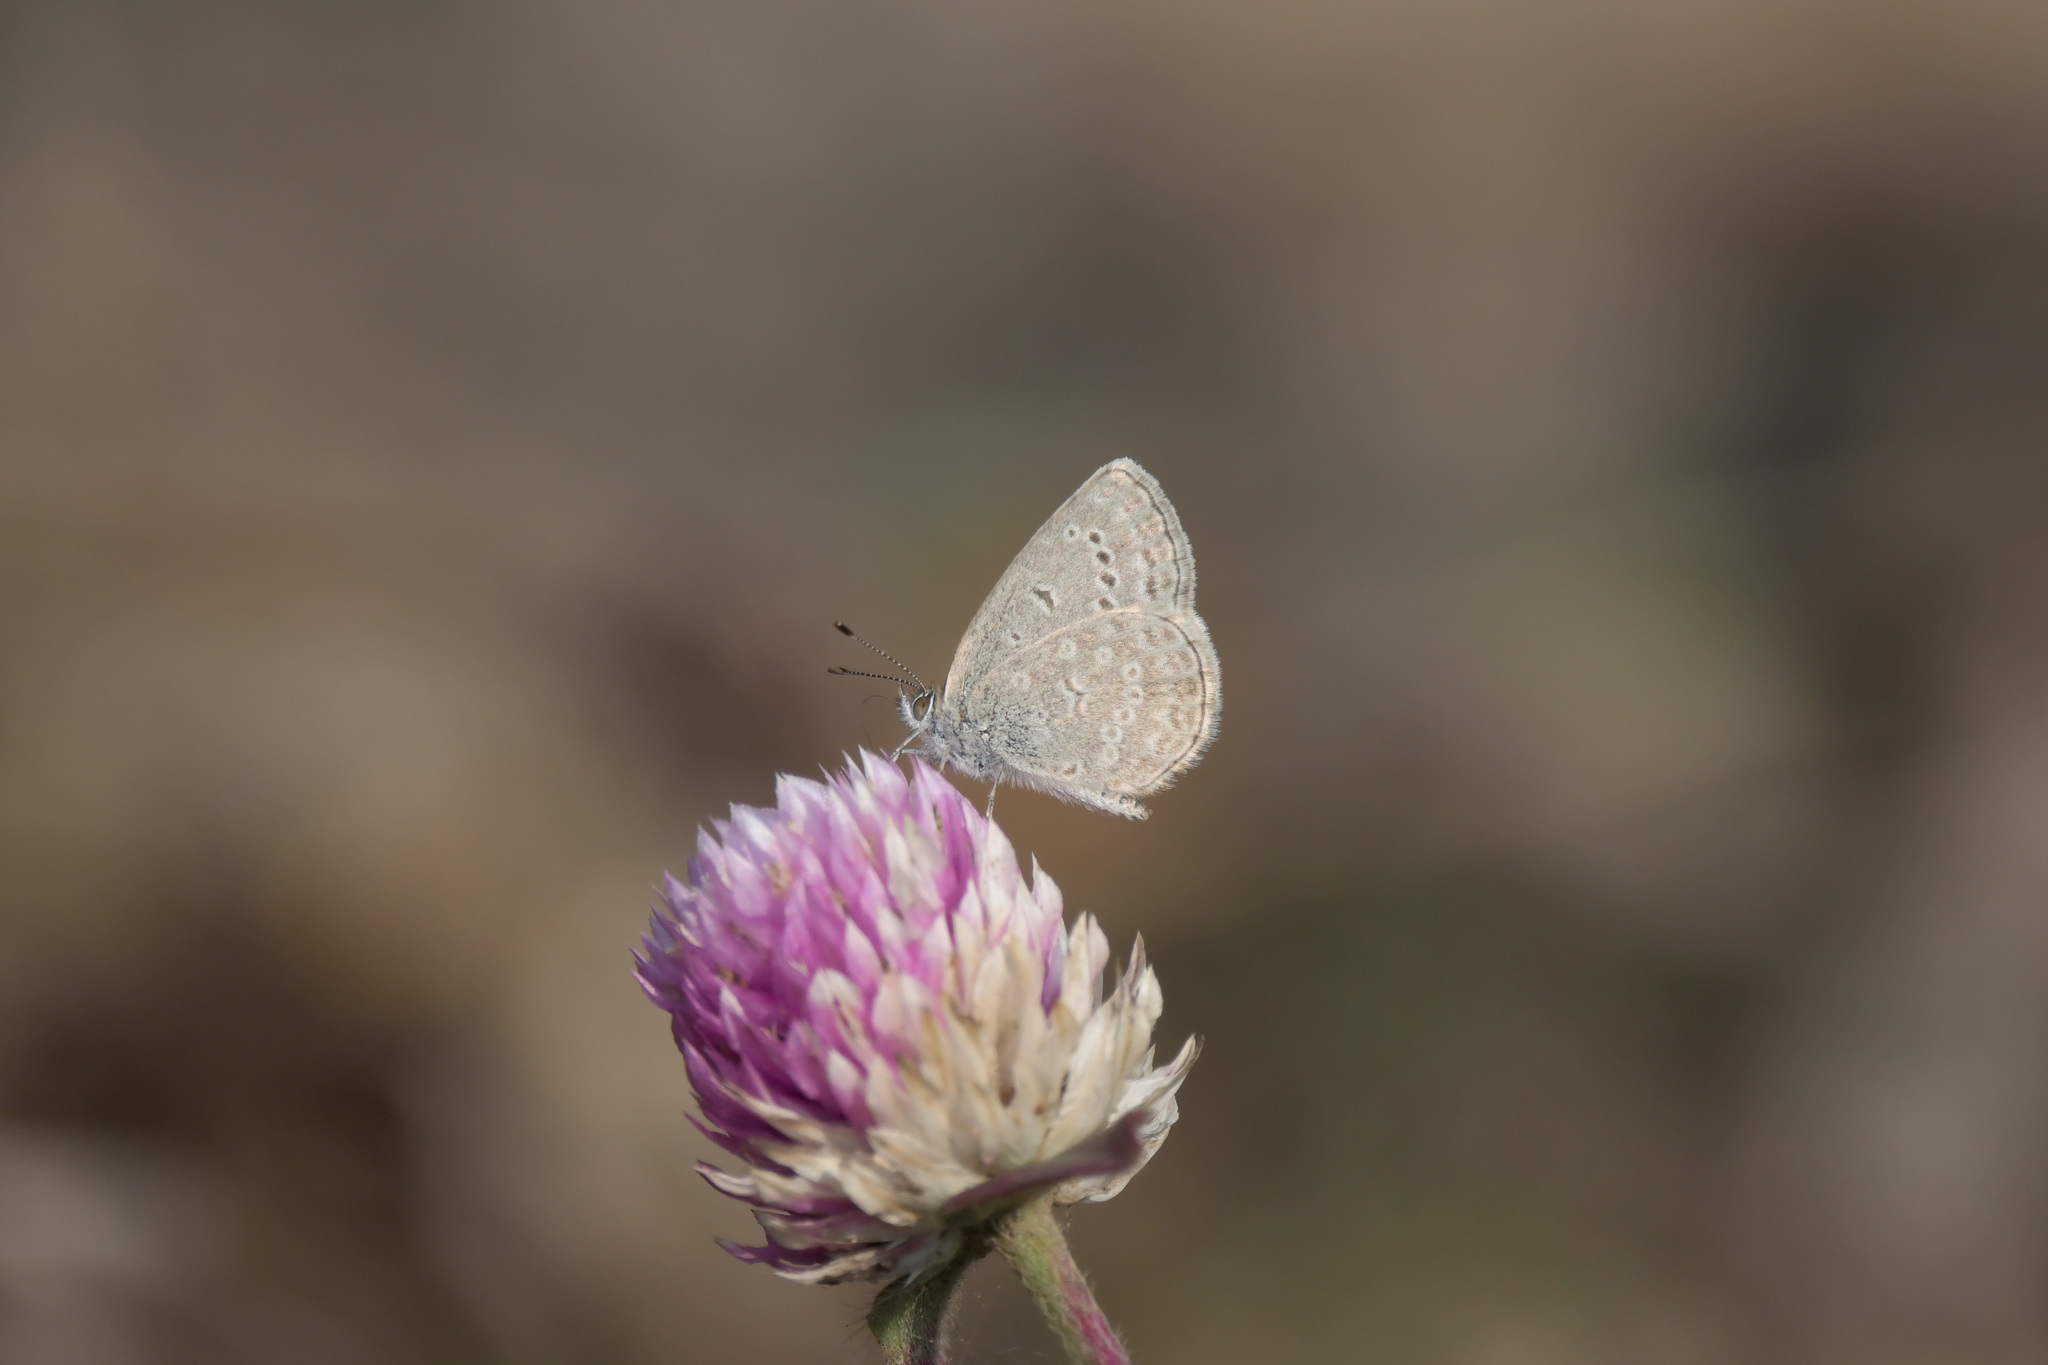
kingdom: Animalia
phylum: Arthropoda
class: Insecta
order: Lepidoptera
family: Lycaenidae
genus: Pseudozizeeria
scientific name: Pseudozizeeria maha
